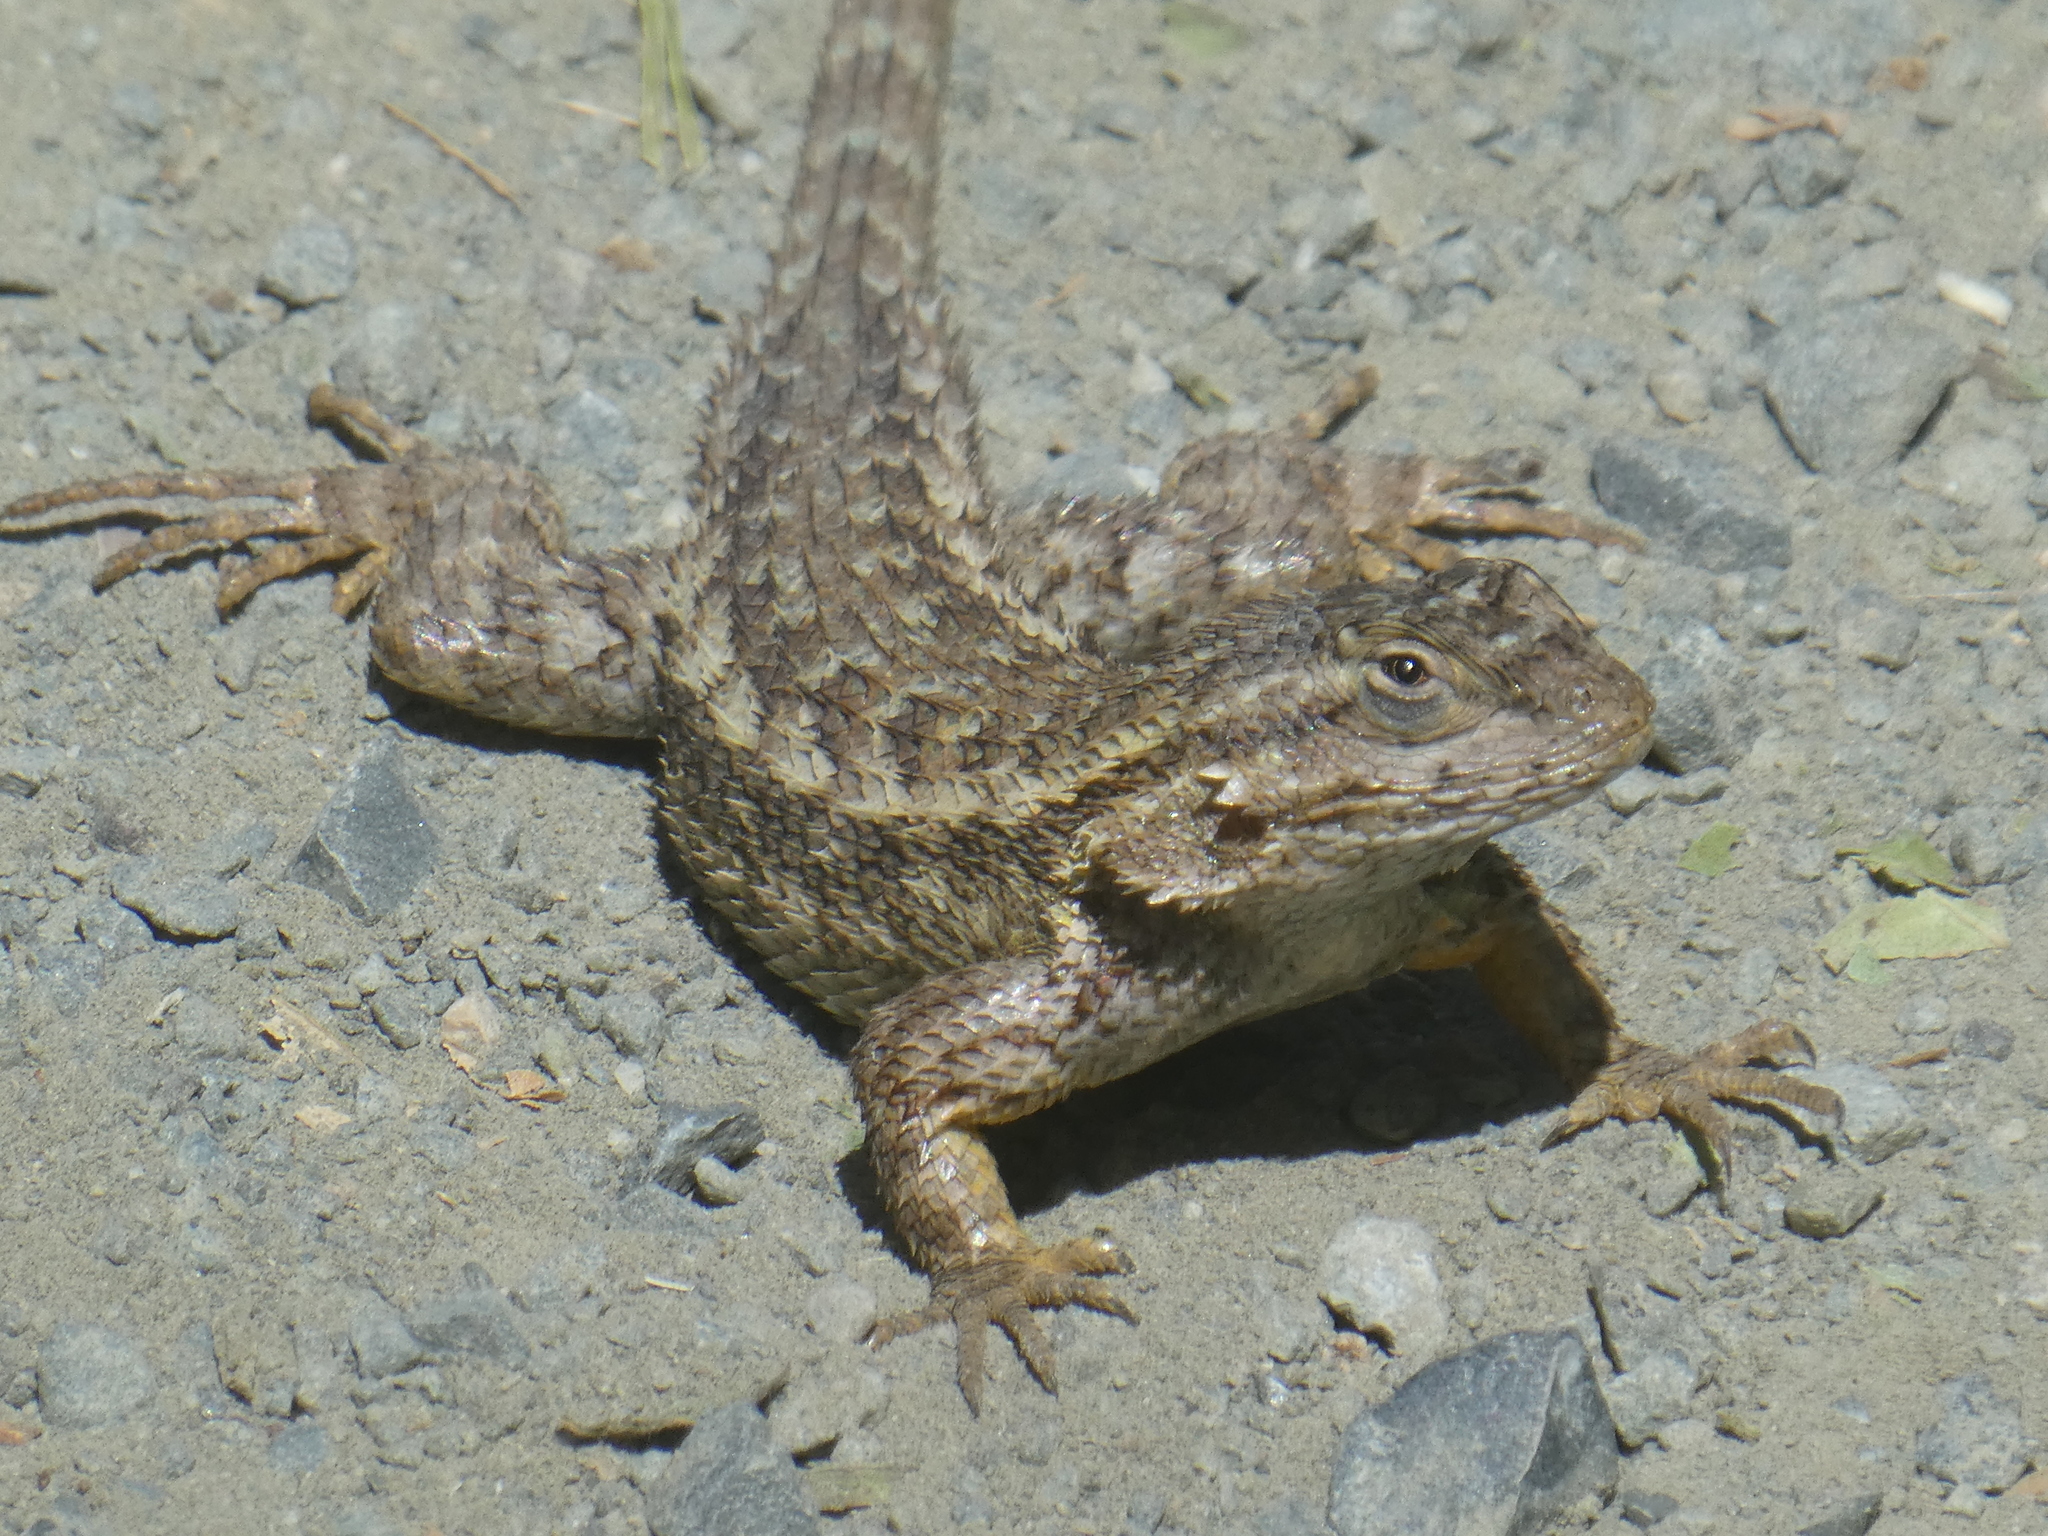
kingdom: Animalia
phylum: Chordata
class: Squamata
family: Phrynosomatidae
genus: Sceloporus
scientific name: Sceloporus occidentalis
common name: Western fence lizard
